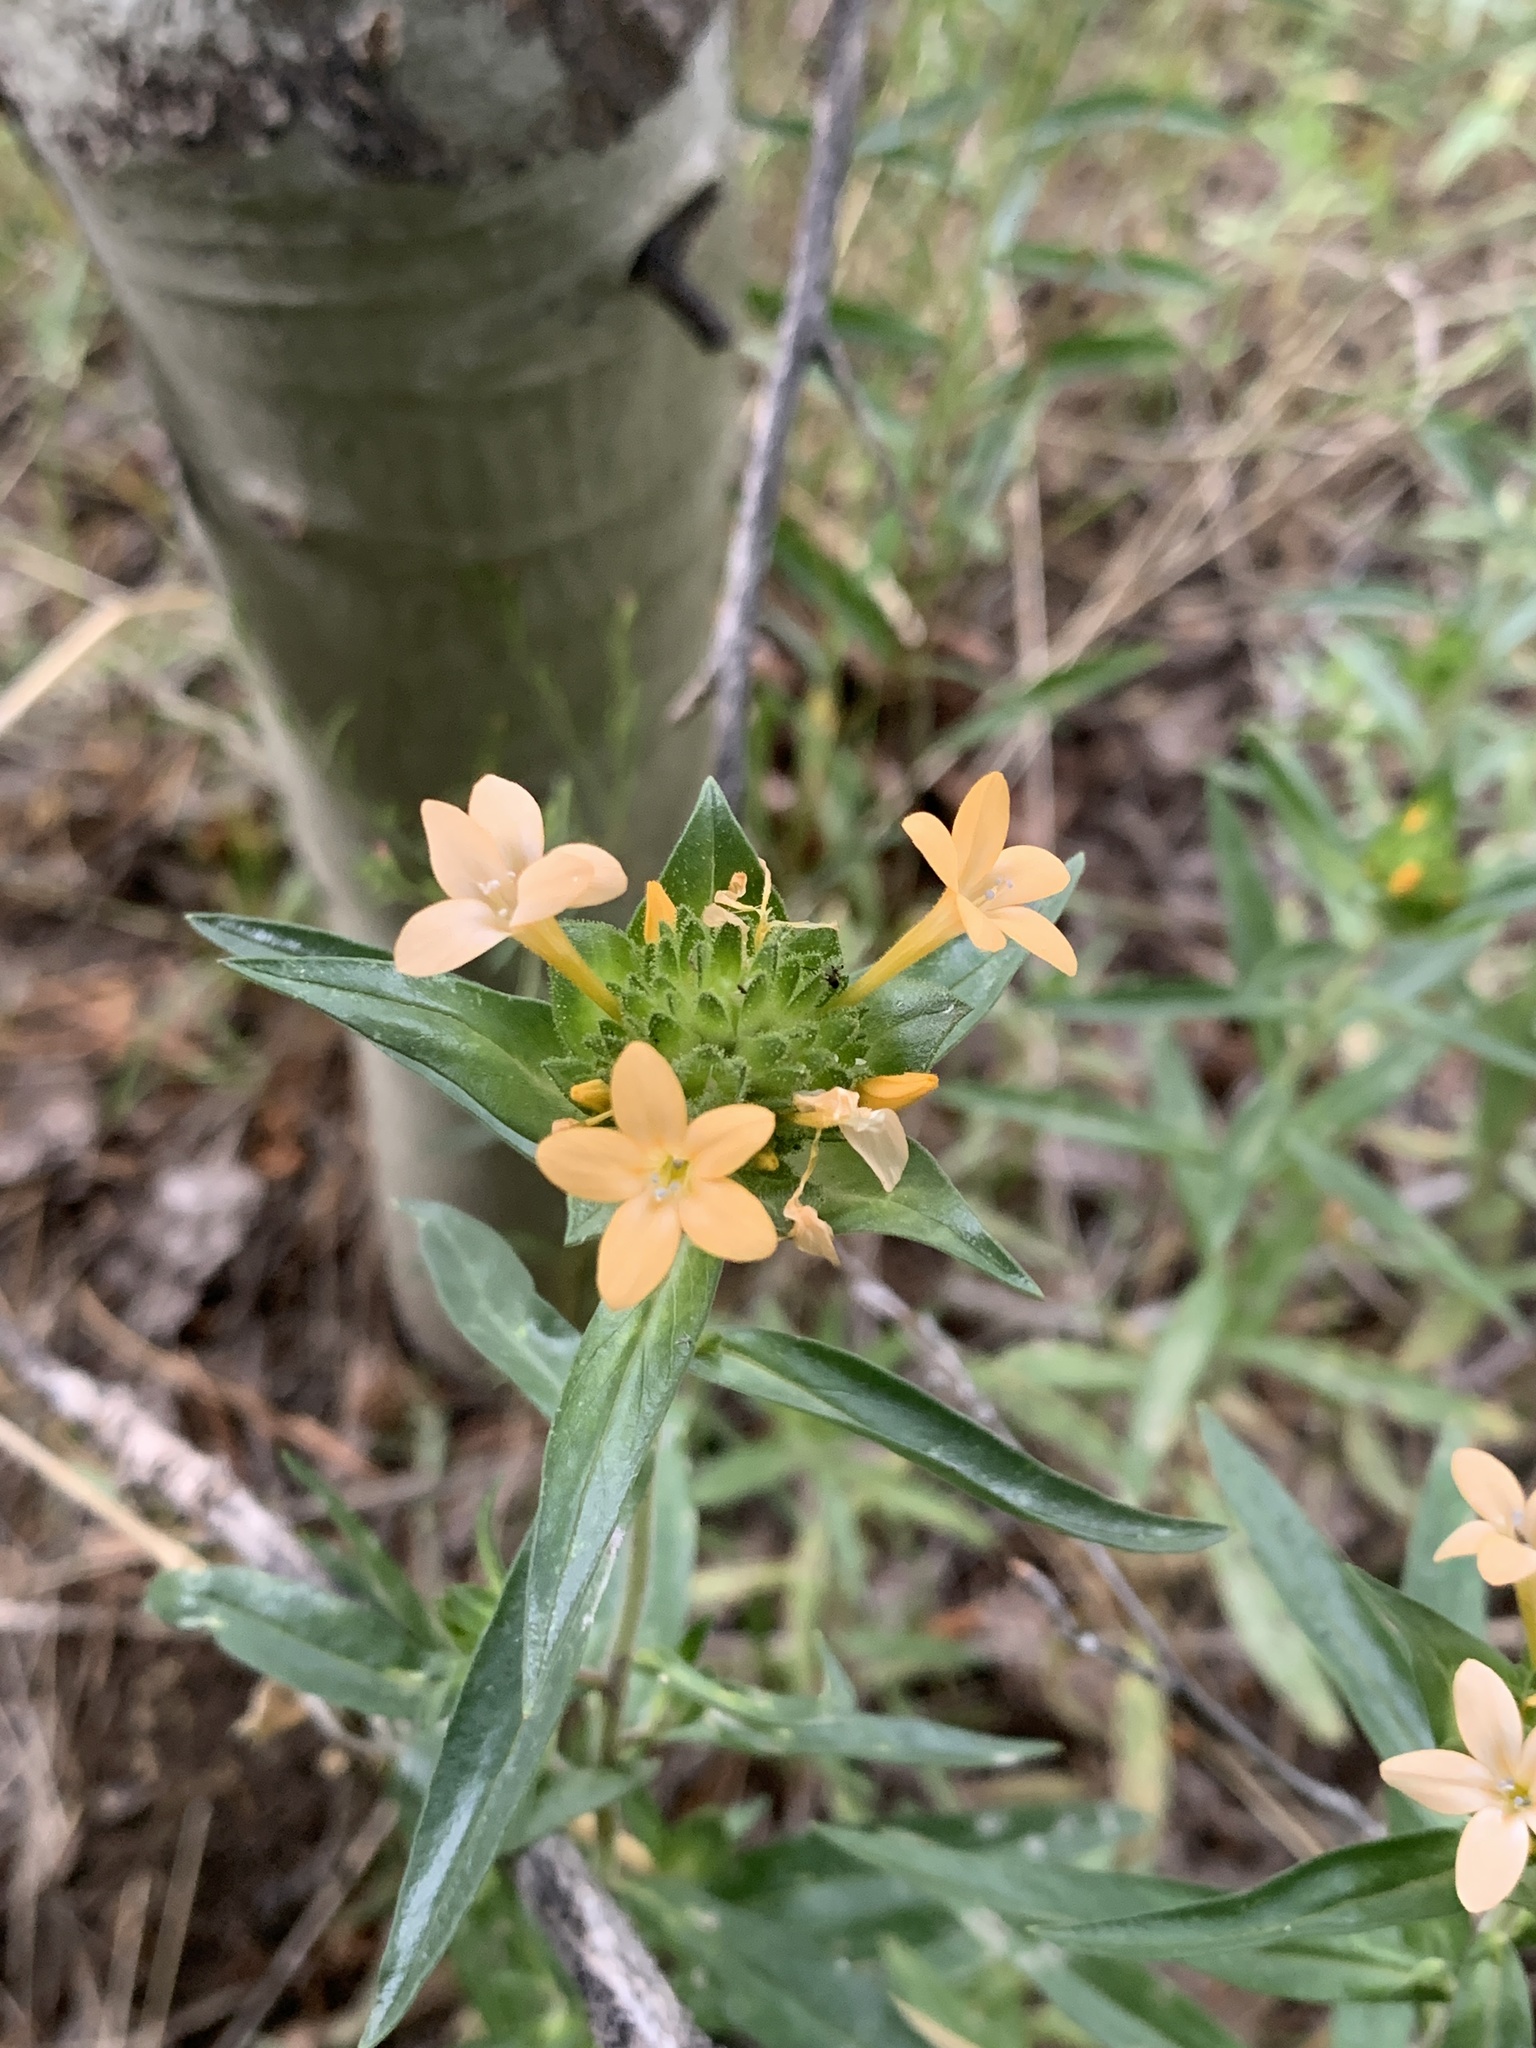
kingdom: Plantae
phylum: Tracheophyta
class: Magnoliopsida
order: Ericales
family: Polemoniaceae
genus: Collomia
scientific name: Collomia grandiflora
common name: California strawflower
